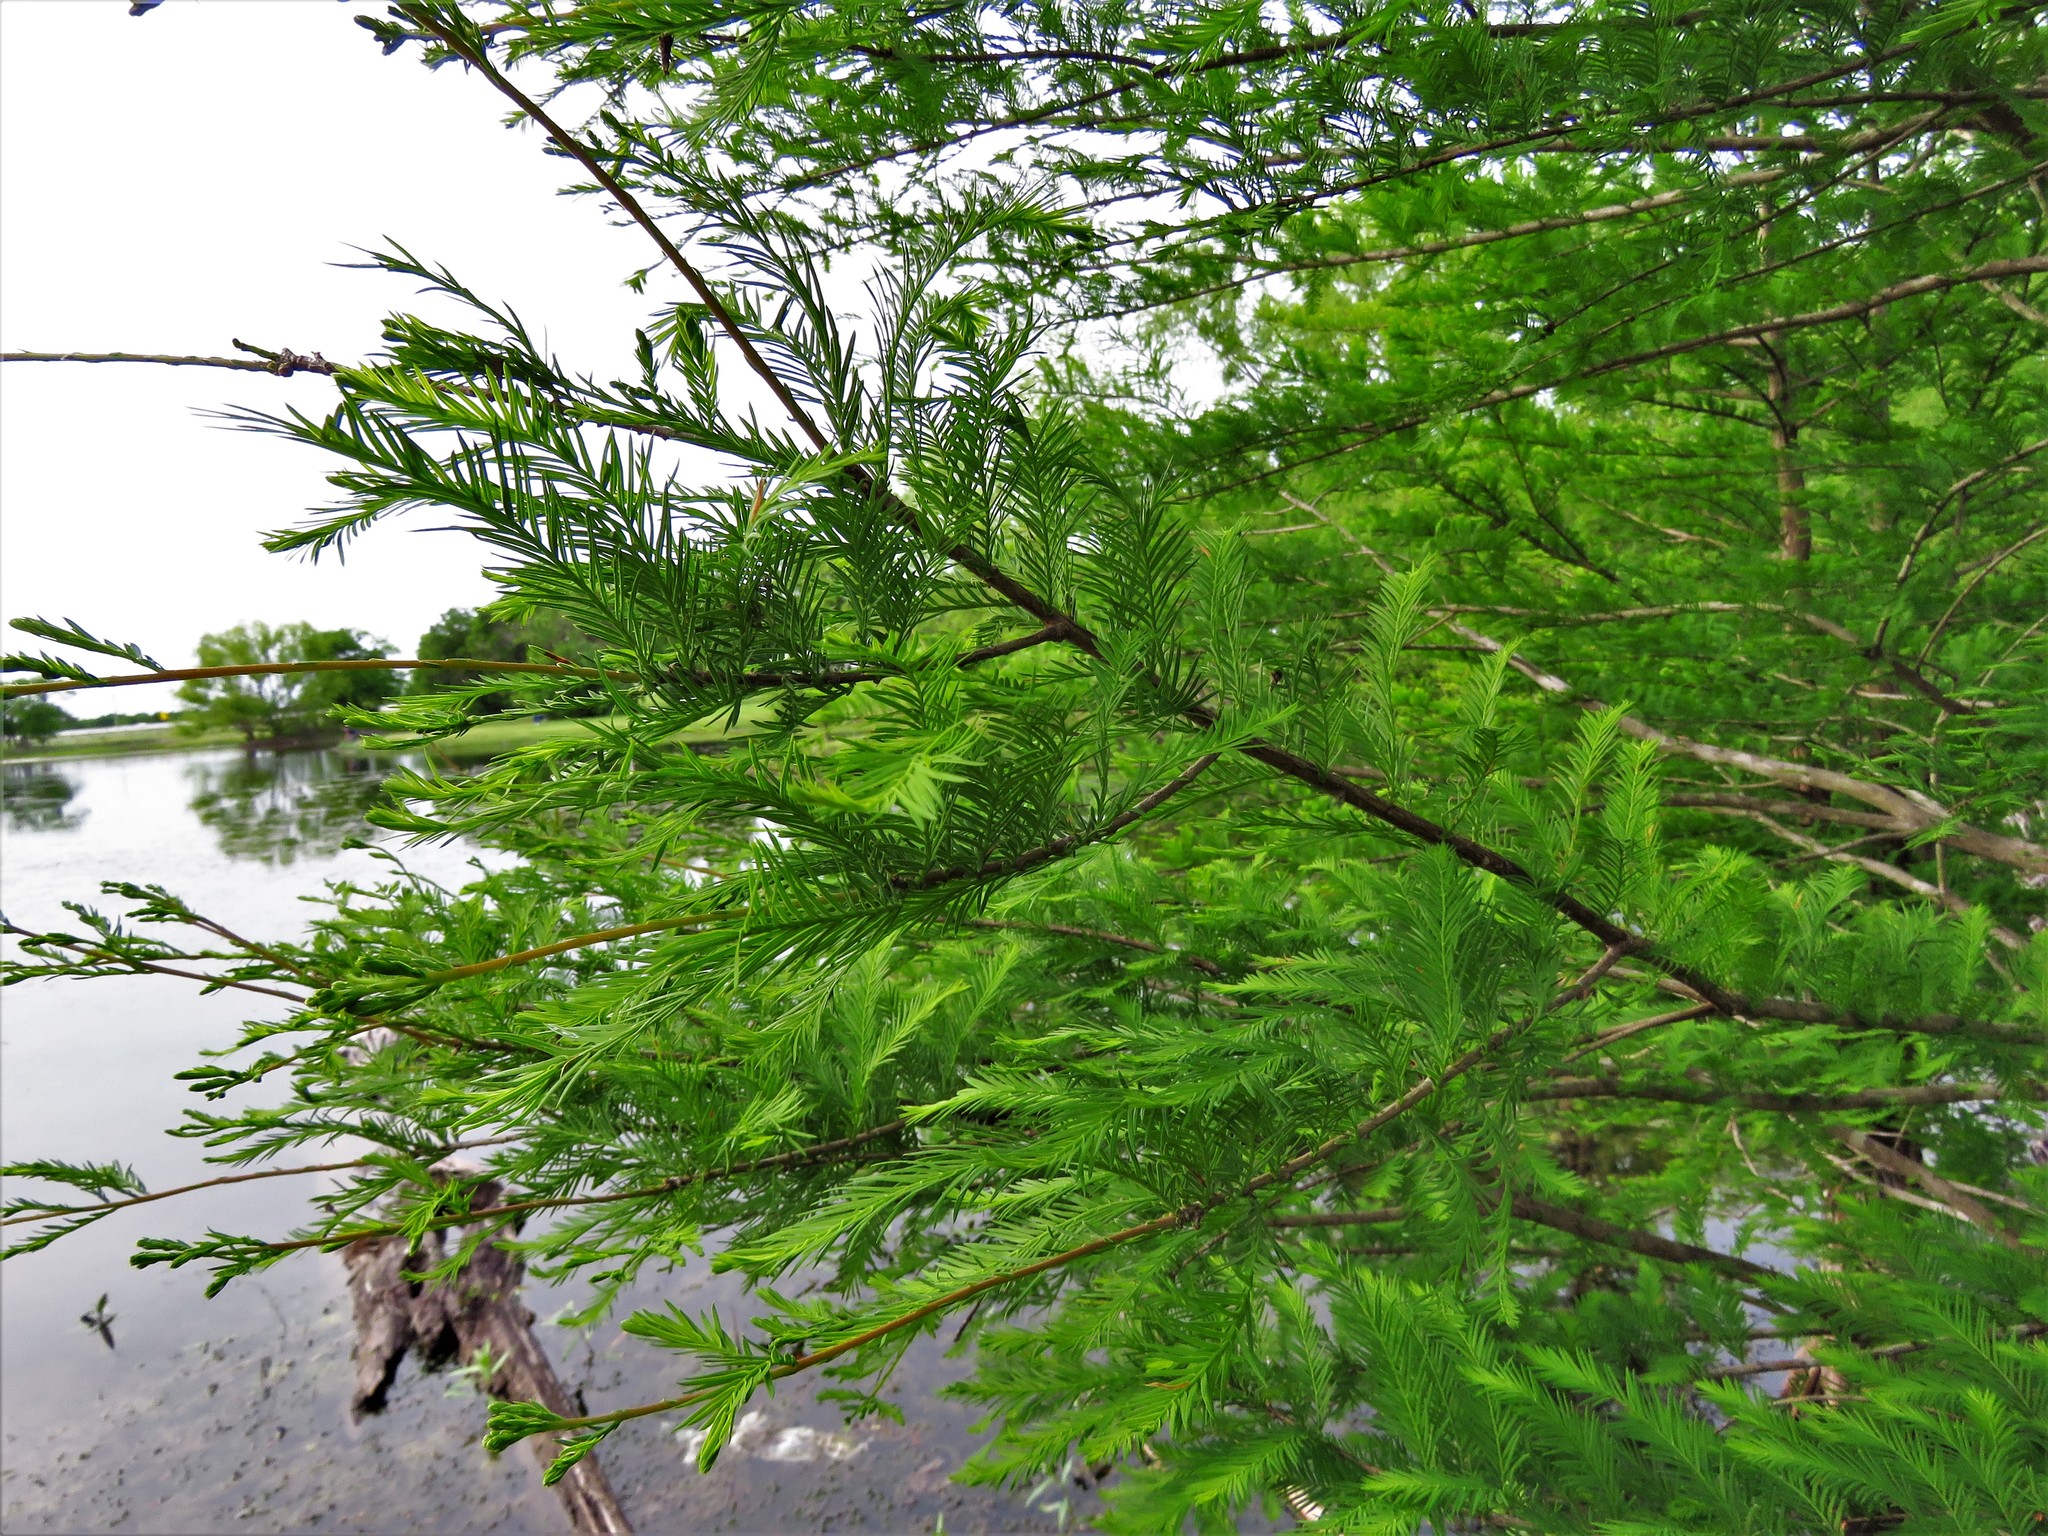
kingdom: Plantae
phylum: Tracheophyta
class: Pinopsida
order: Pinales
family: Cupressaceae
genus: Taxodium
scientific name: Taxodium distichum
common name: Bald cypress
